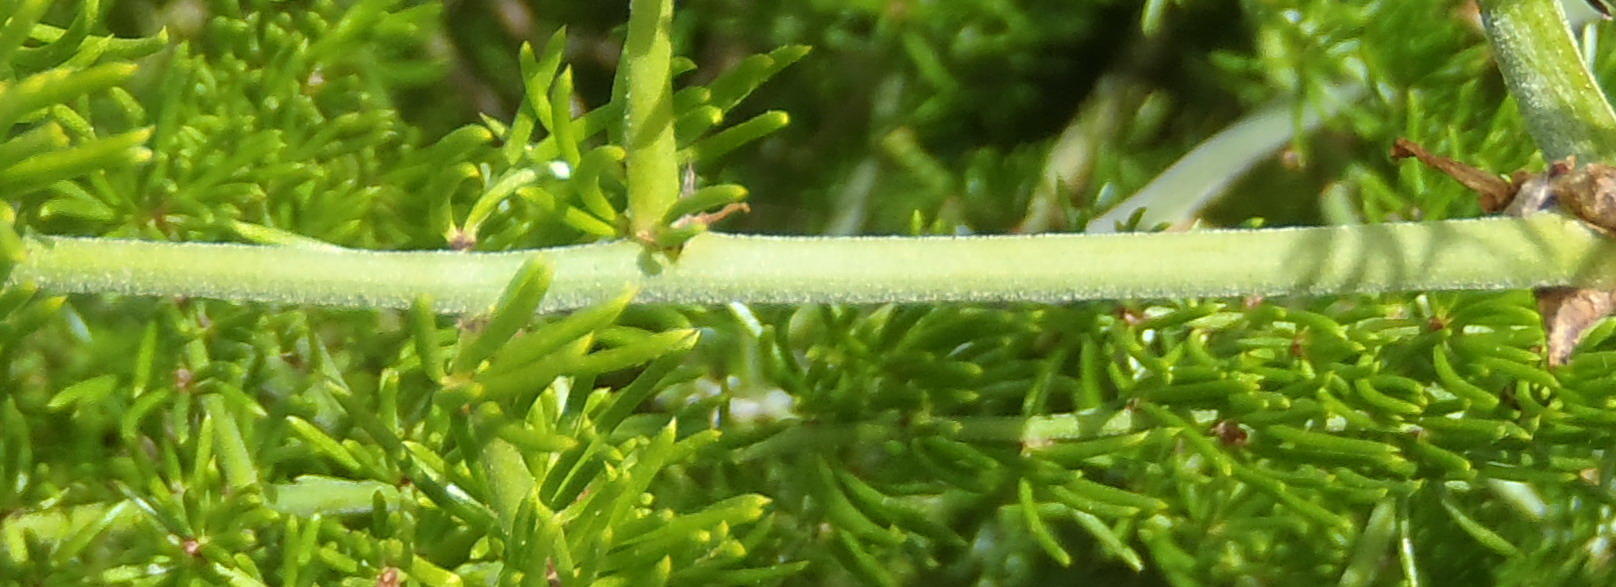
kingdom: Plantae
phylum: Tracheophyta
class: Liliopsida
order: Asparagales
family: Asparagaceae
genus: Asparagus
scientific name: Asparagus africanus
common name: Asparagus-fern
